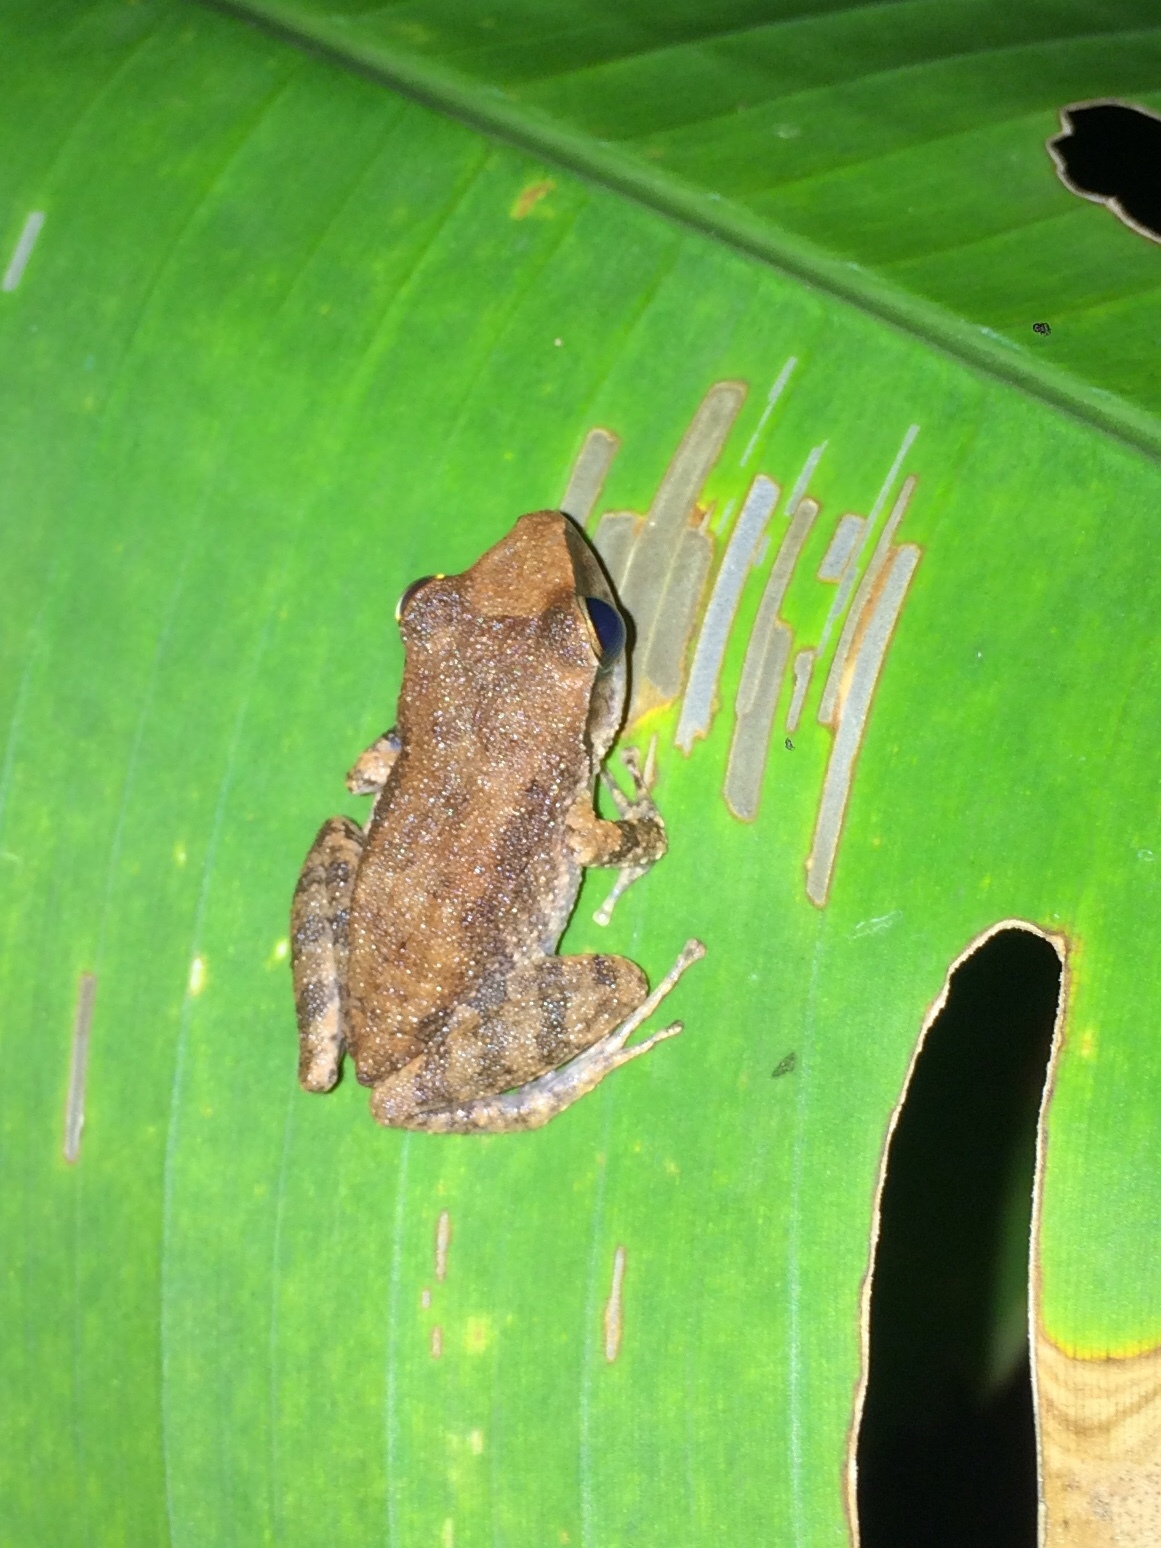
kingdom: Animalia
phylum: Chordata
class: Amphibia
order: Anura
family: Craugastoridae
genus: Pristimantis
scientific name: Pristimantis paulodutrai
